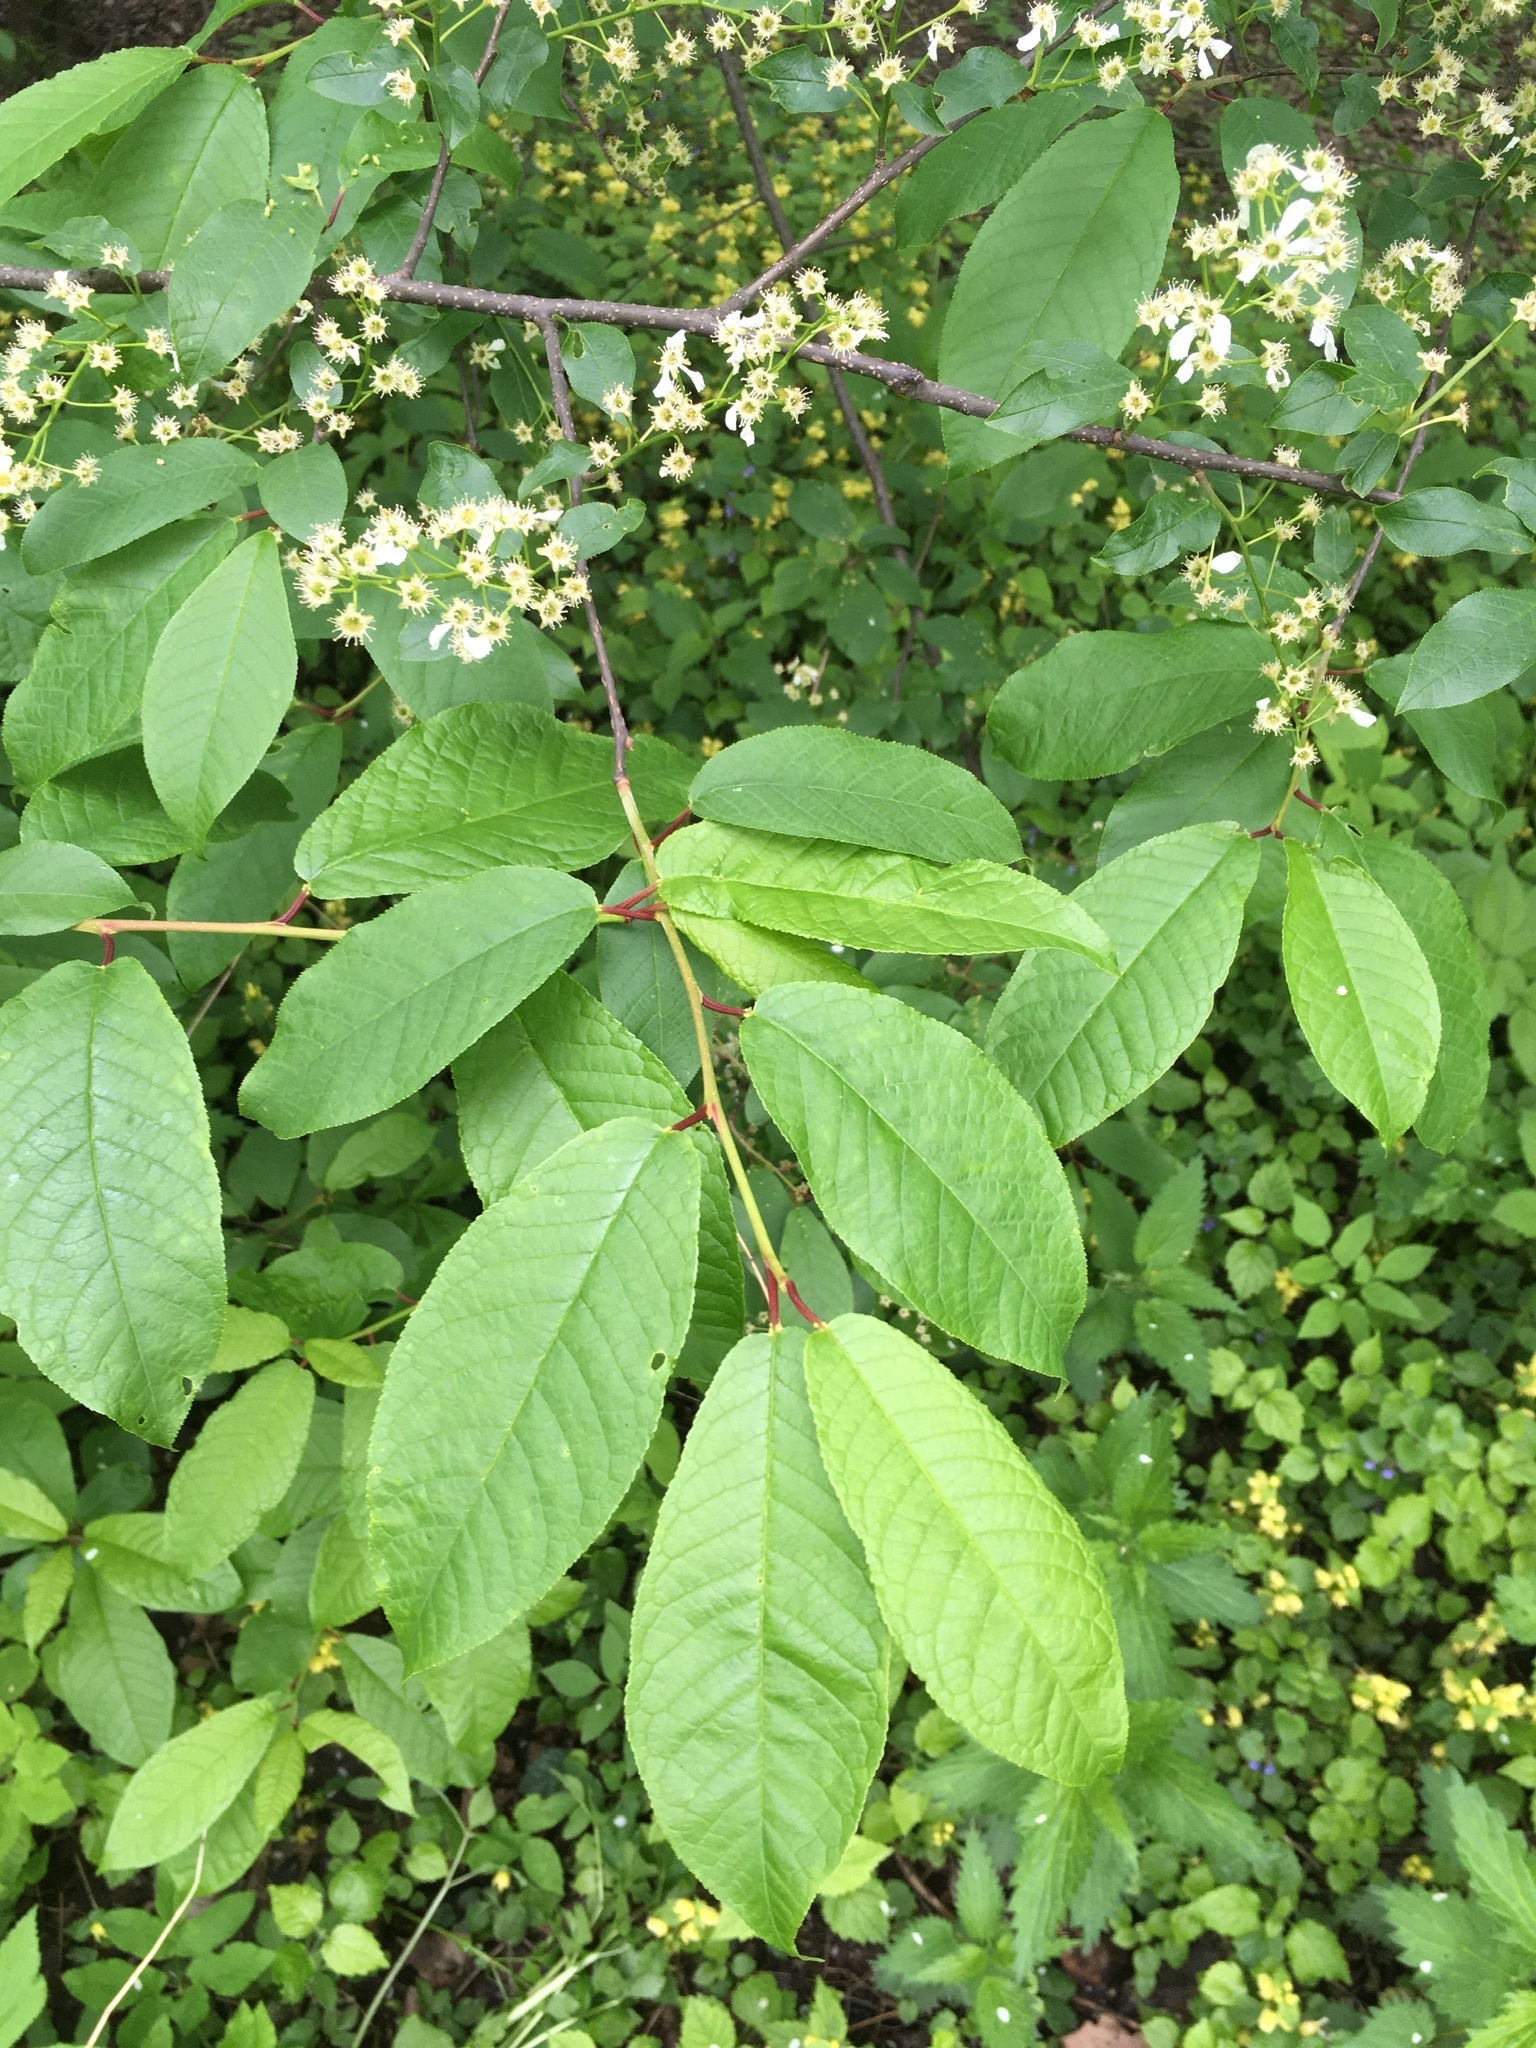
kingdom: Plantae
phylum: Tracheophyta
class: Magnoliopsida
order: Rosales
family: Rosaceae
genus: Prunus
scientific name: Prunus padus
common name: Bird cherry
